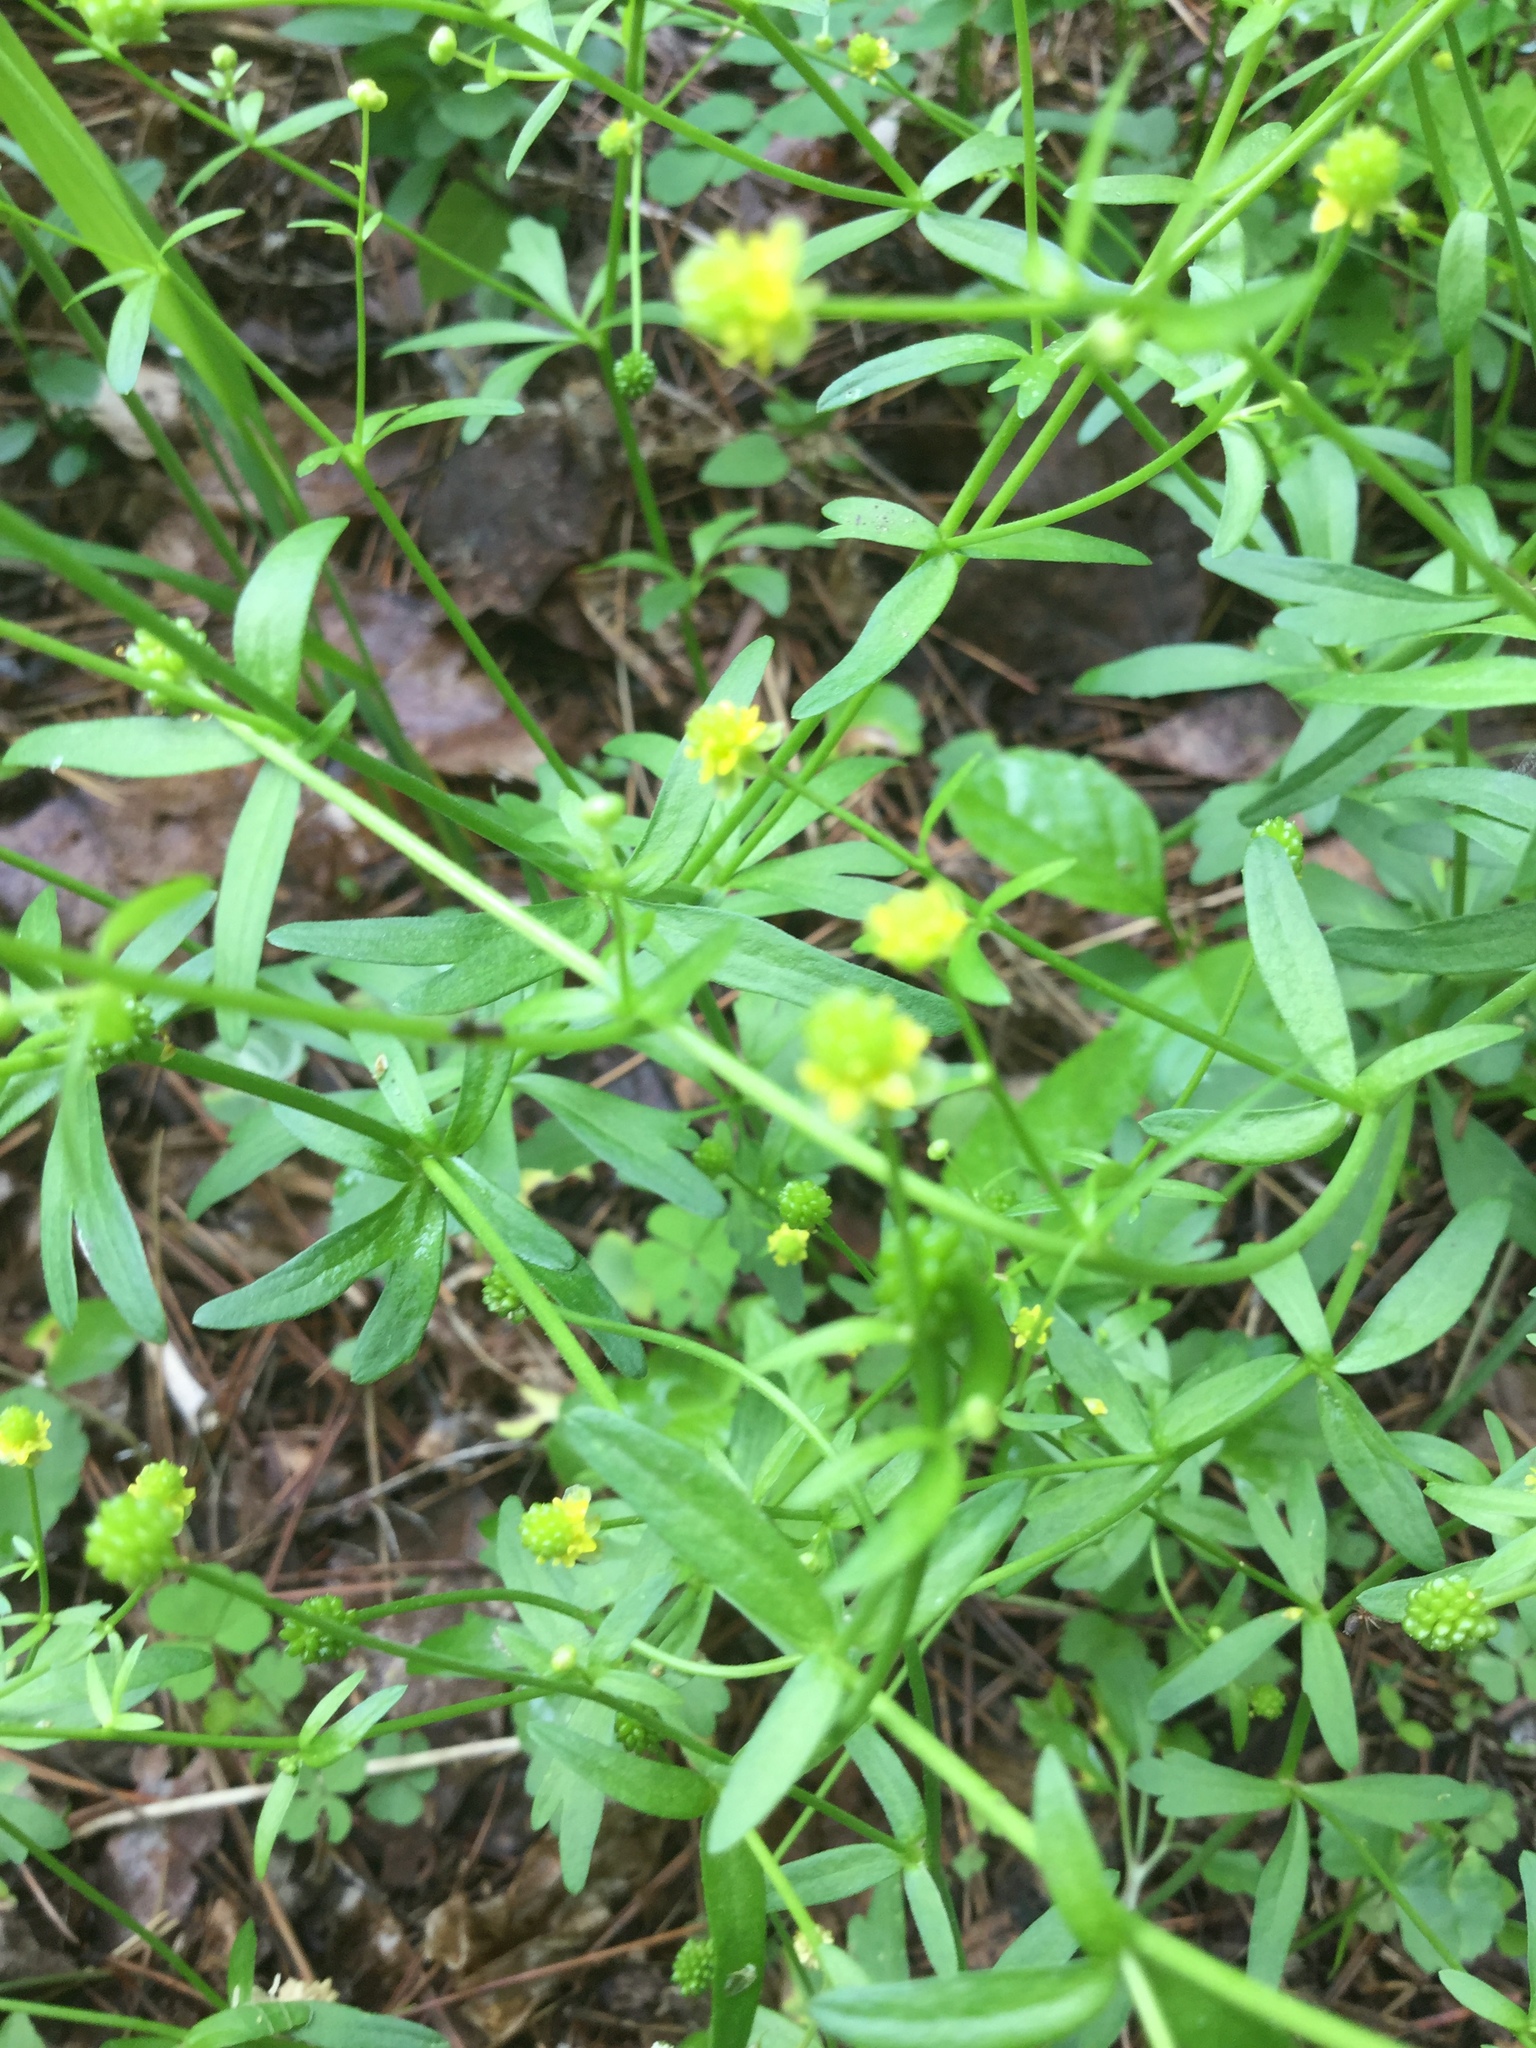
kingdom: Plantae
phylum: Tracheophyta
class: Magnoliopsida
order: Ranunculales
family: Ranunculaceae
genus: Ranunculus
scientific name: Ranunculus abortivus
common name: Early wood buttercup
